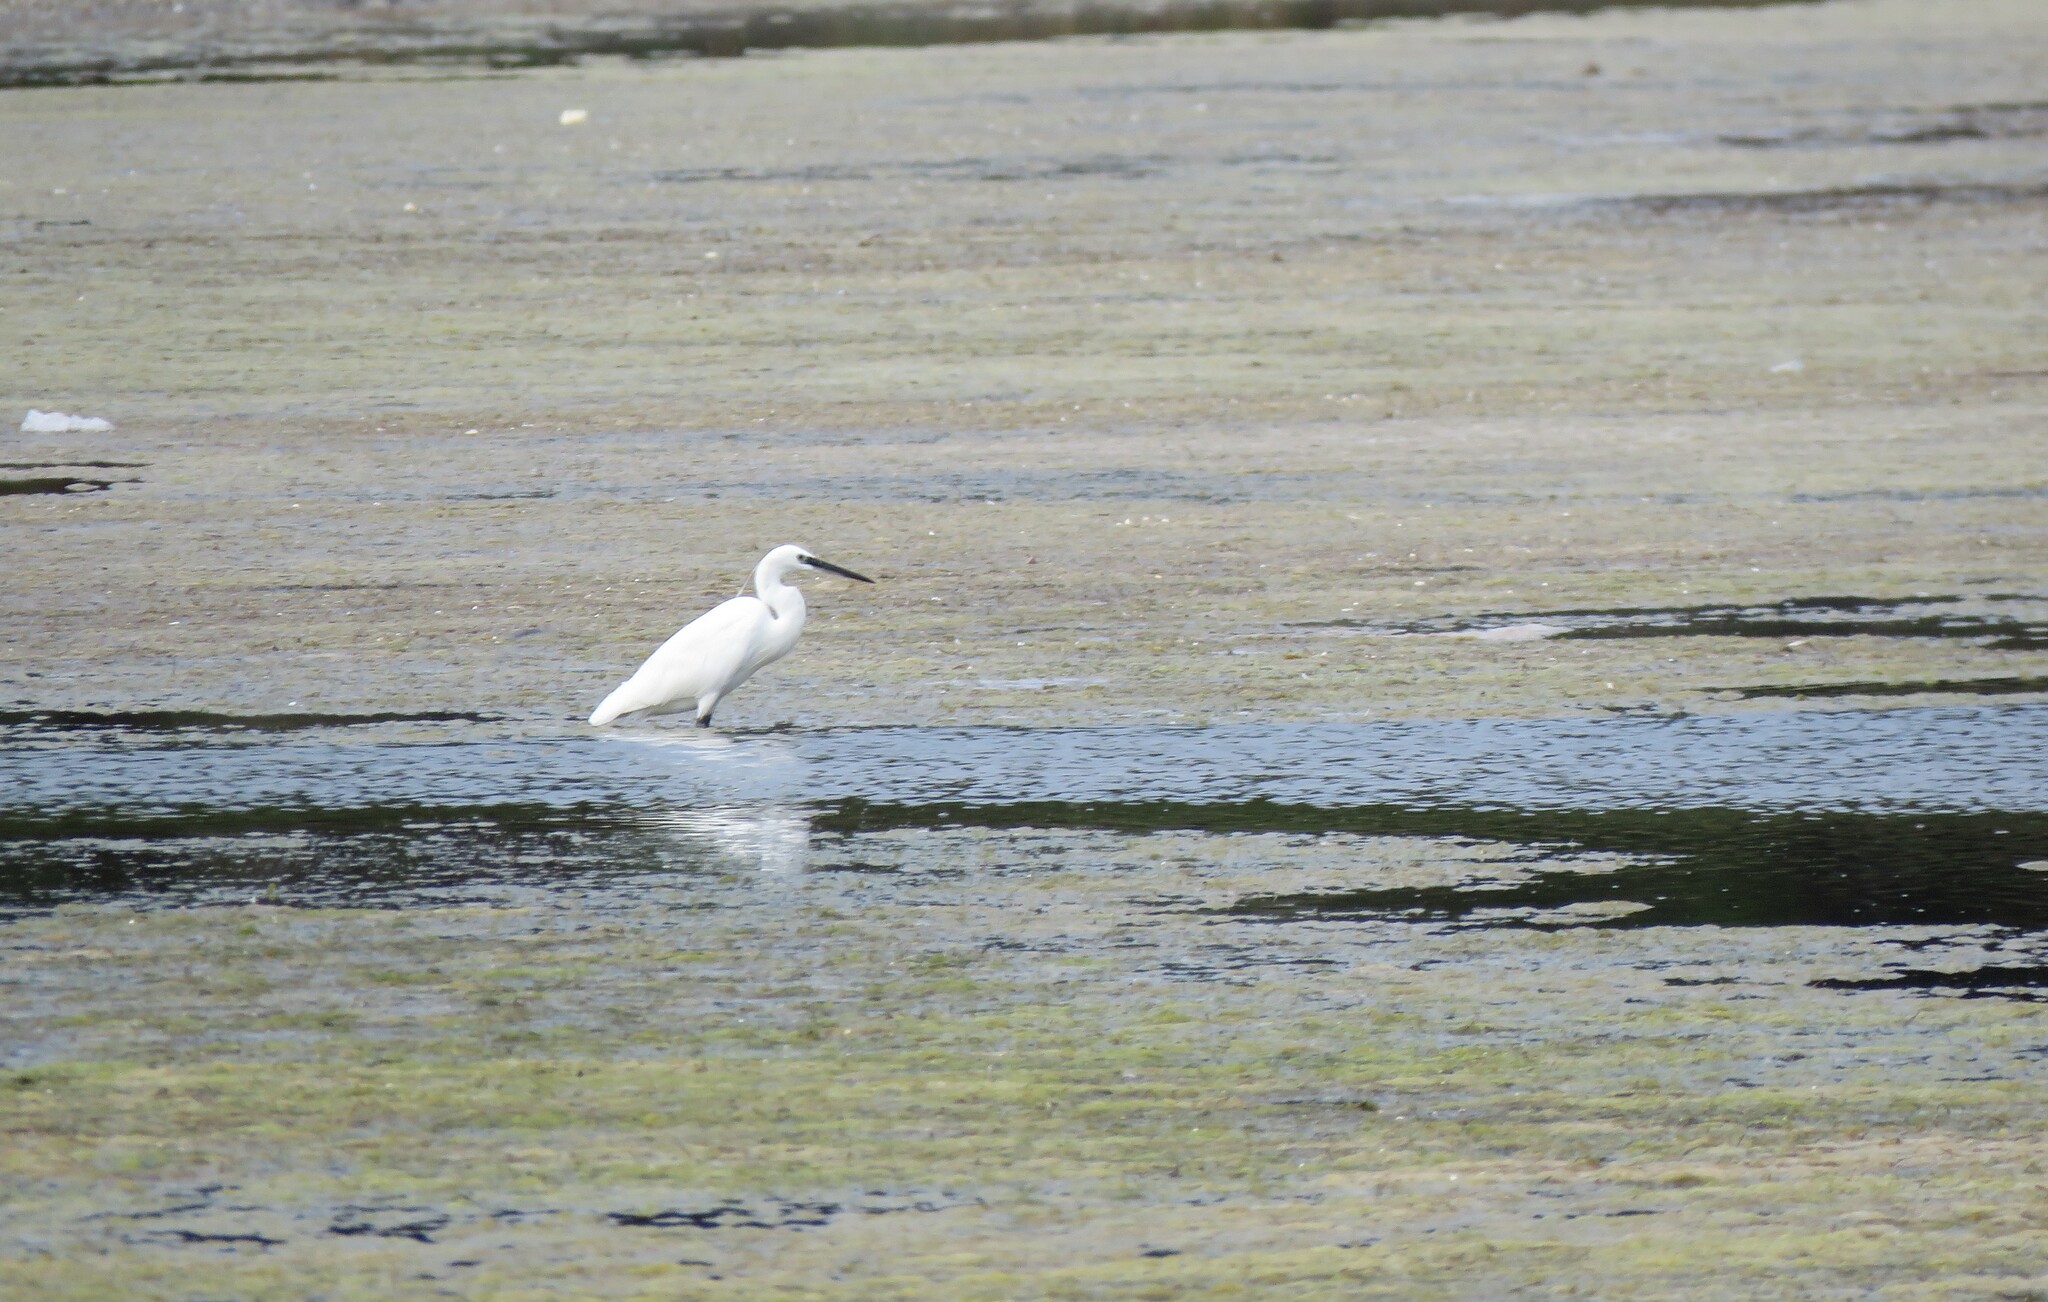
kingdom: Animalia
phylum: Chordata
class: Aves
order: Pelecaniformes
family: Ardeidae
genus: Egretta
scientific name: Egretta garzetta
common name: Little egret
